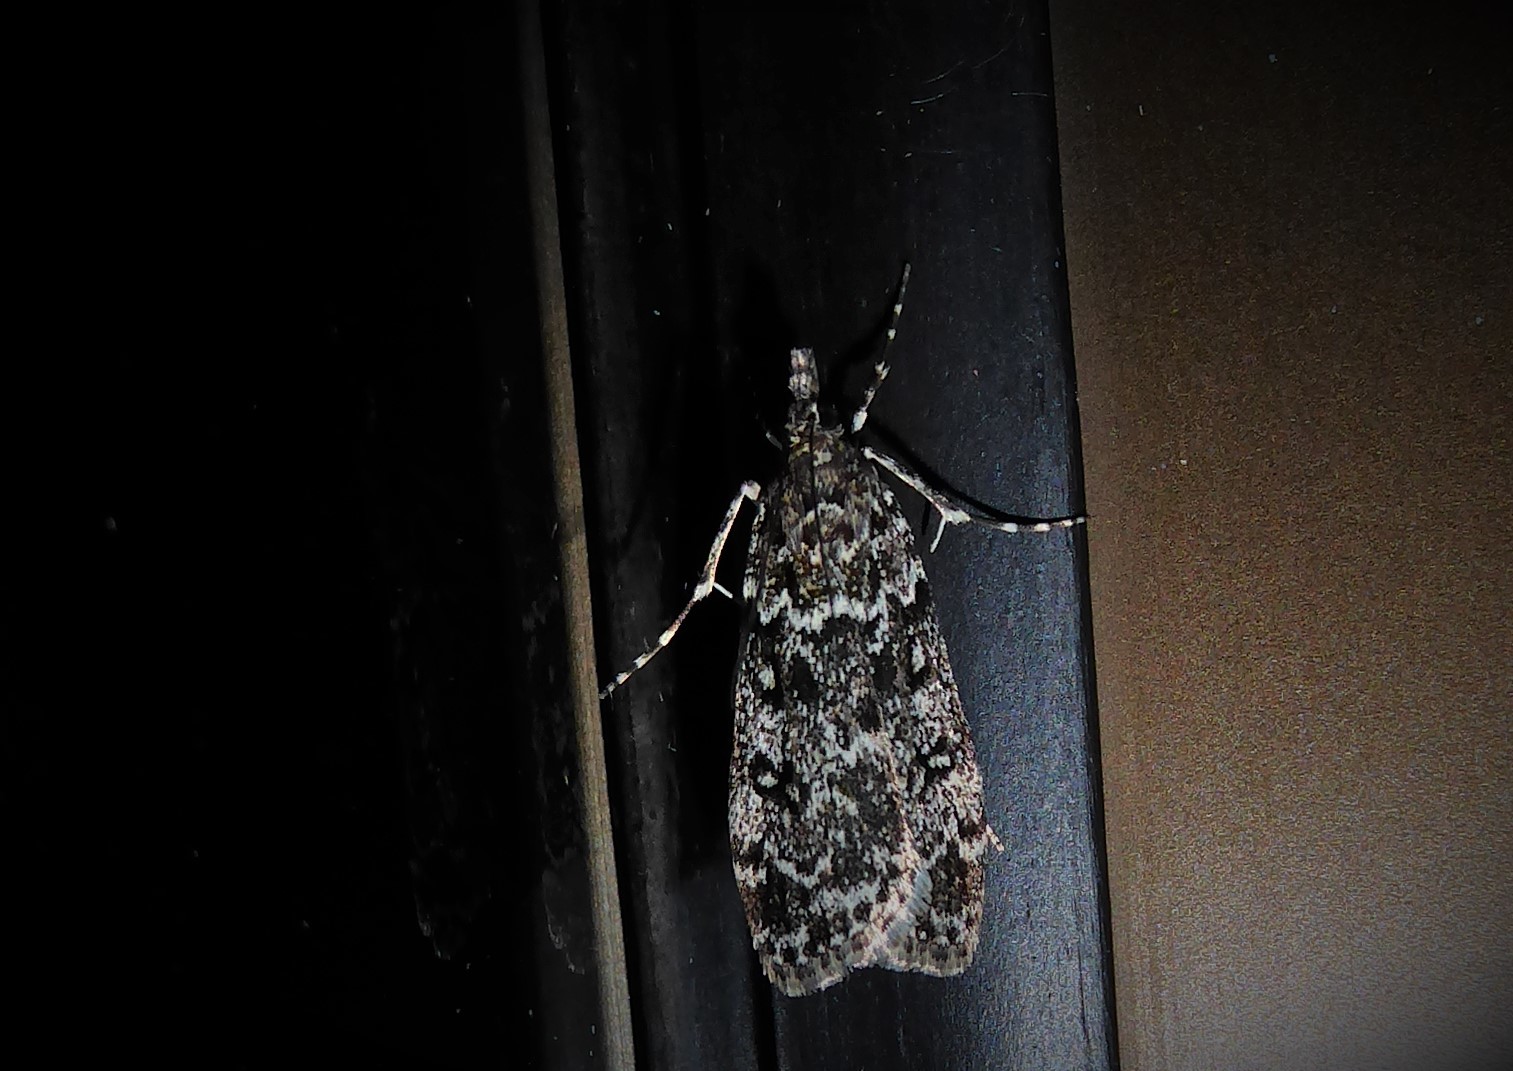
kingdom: Animalia
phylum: Arthropoda
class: Insecta
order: Lepidoptera
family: Crambidae
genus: Eudonia
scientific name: Eudonia philerga
